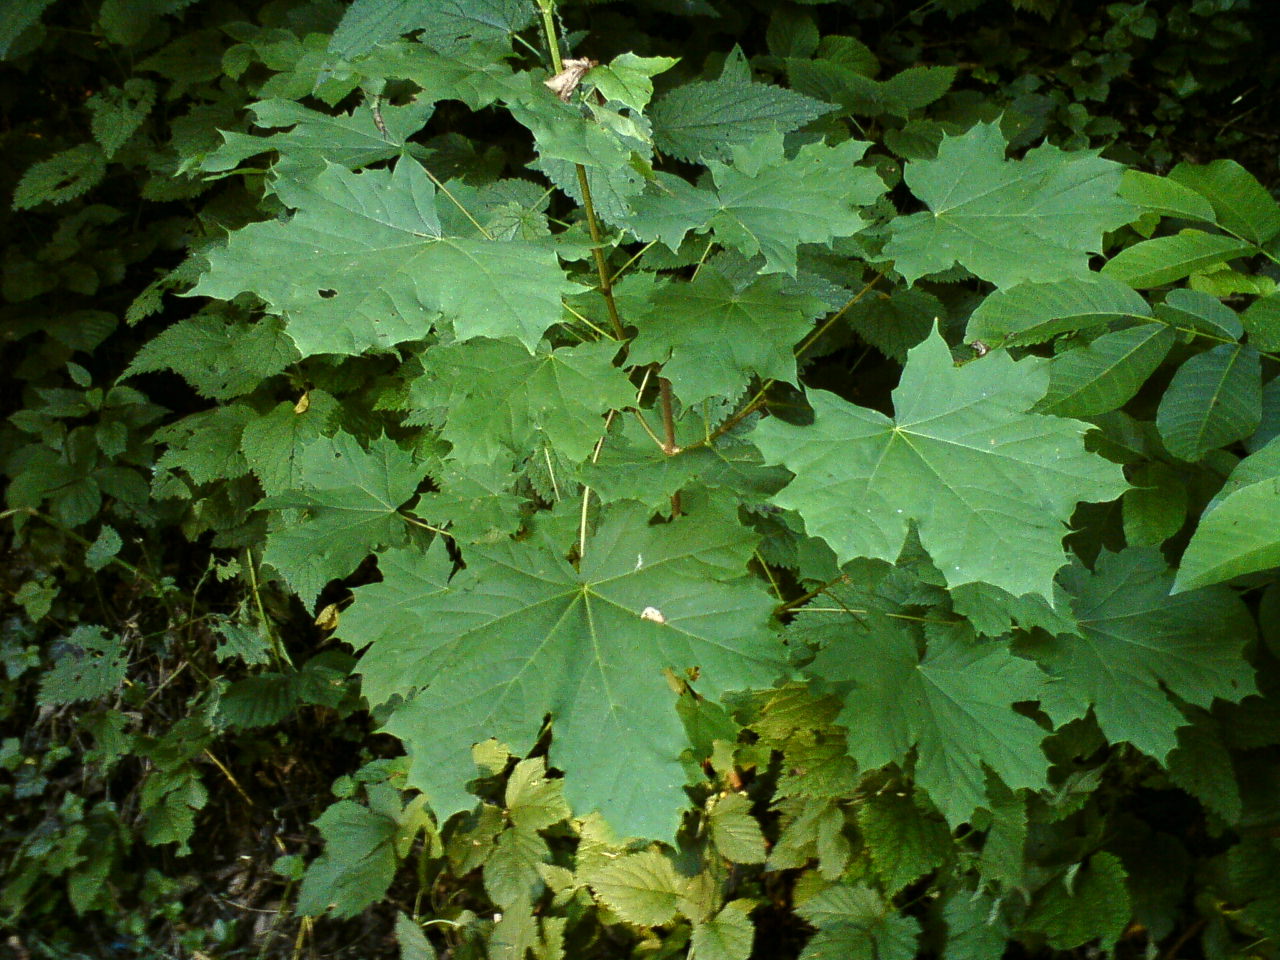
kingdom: Plantae
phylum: Tracheophyta
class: Magnoliopsida
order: Sapindales
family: Sapindaceae
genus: Acer
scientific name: Acer platanoides
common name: Norway maple
